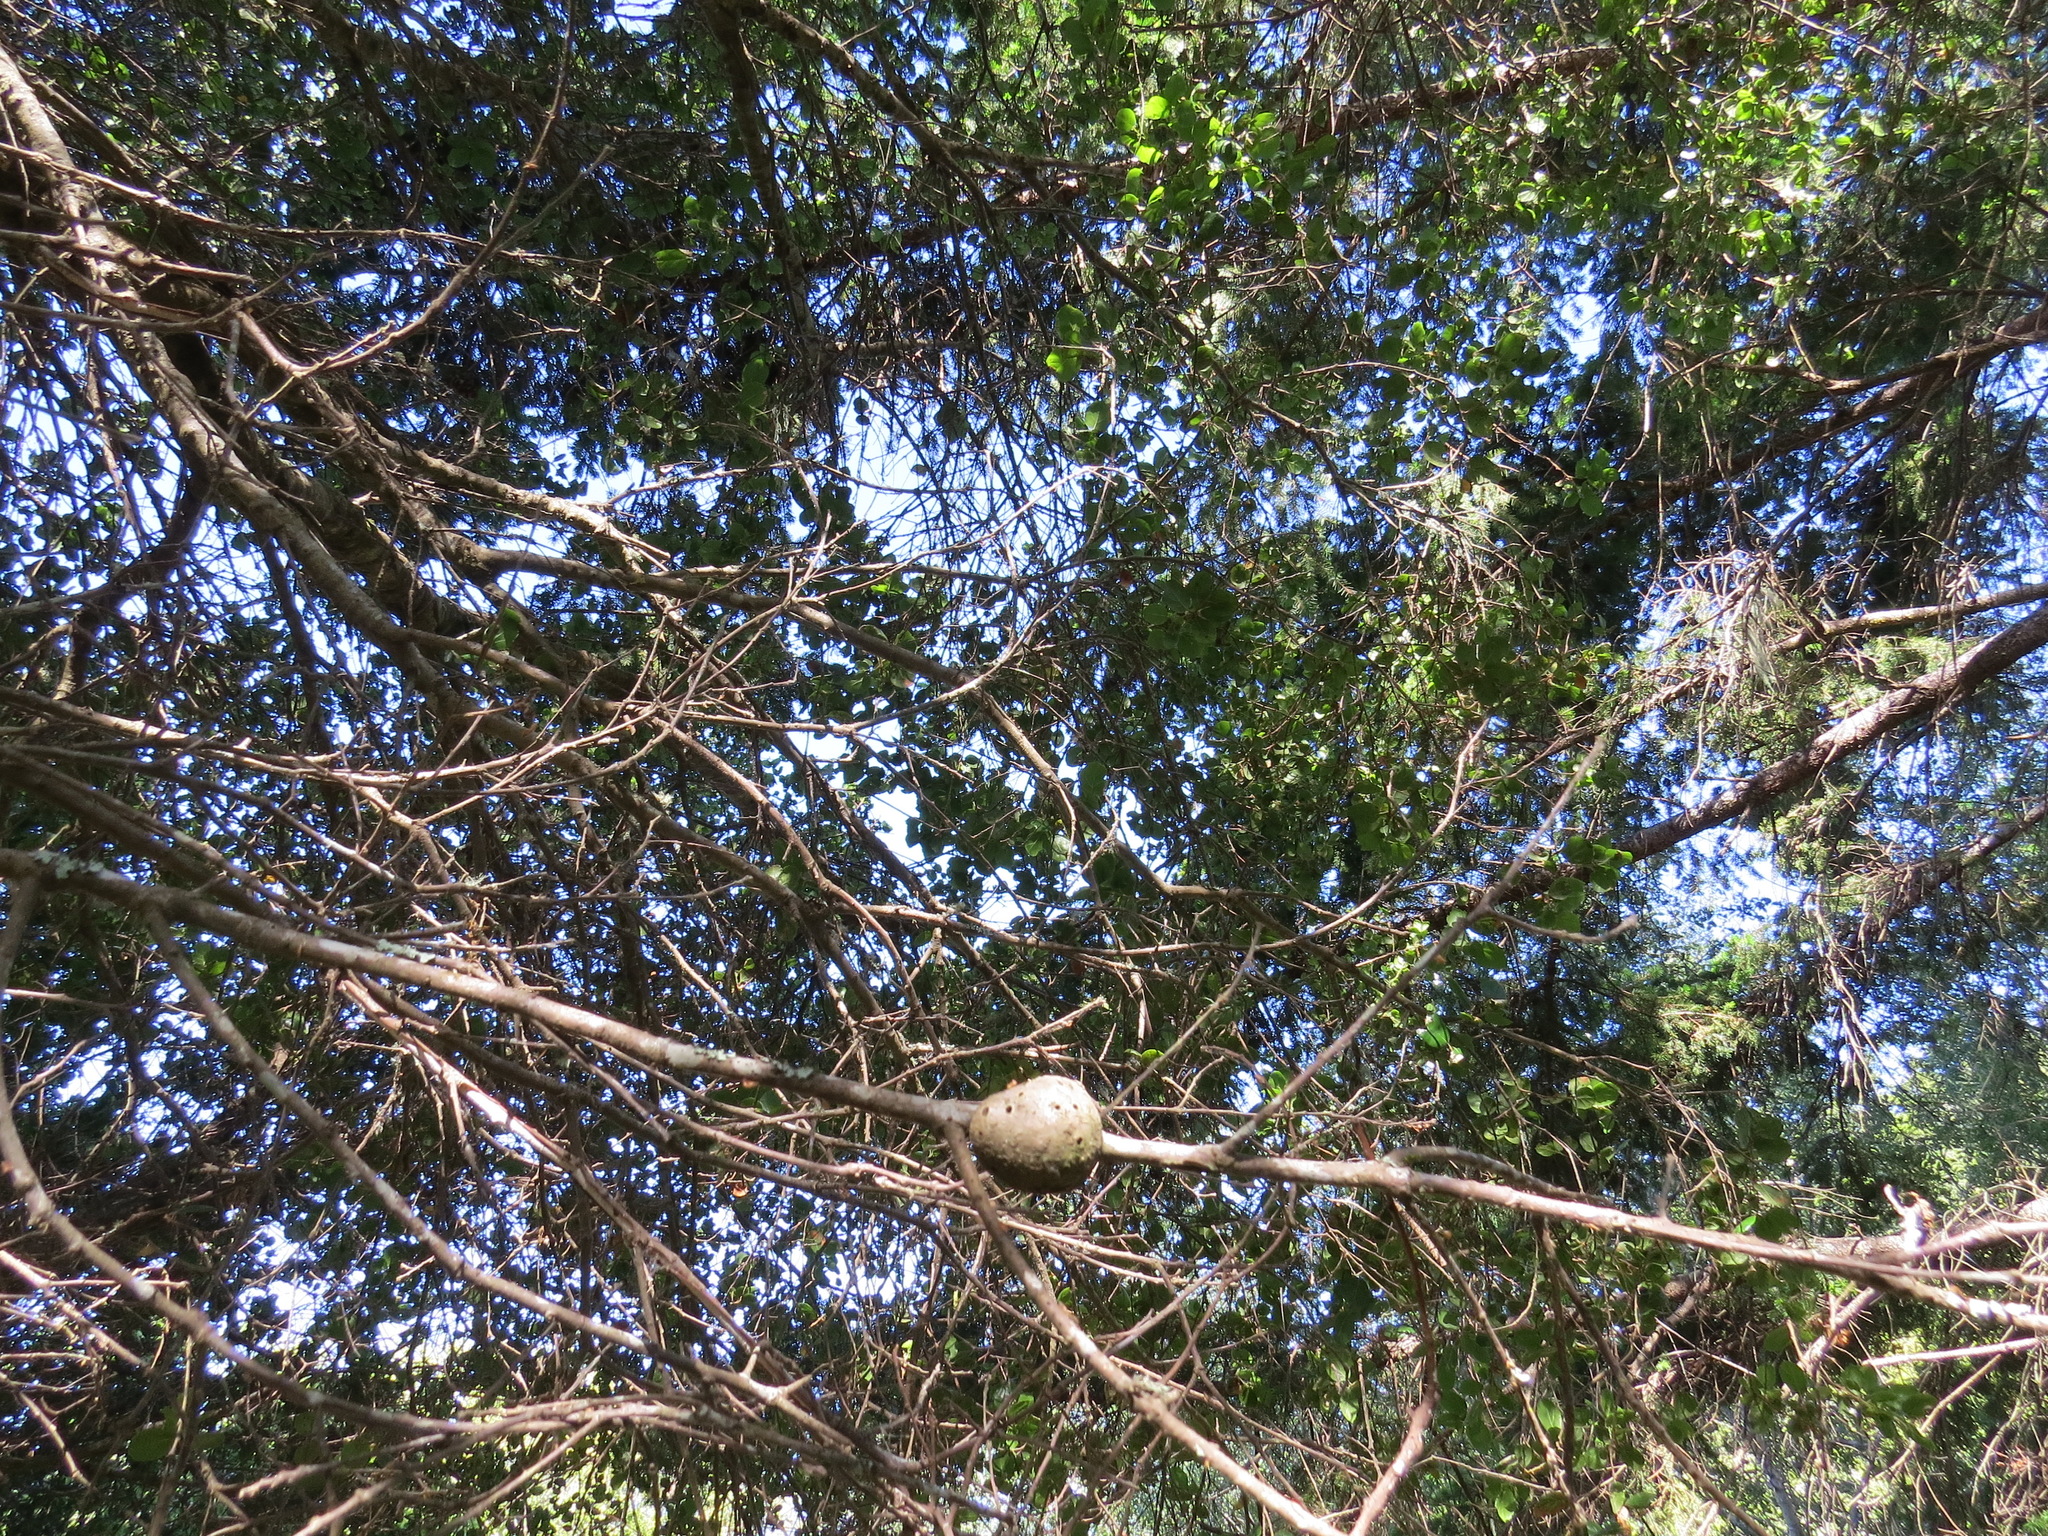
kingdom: Animalia
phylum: Arthropoda
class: Insecta
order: Hymenoptera
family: Cynipidae
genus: Callirhytis
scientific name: Callirhytis
